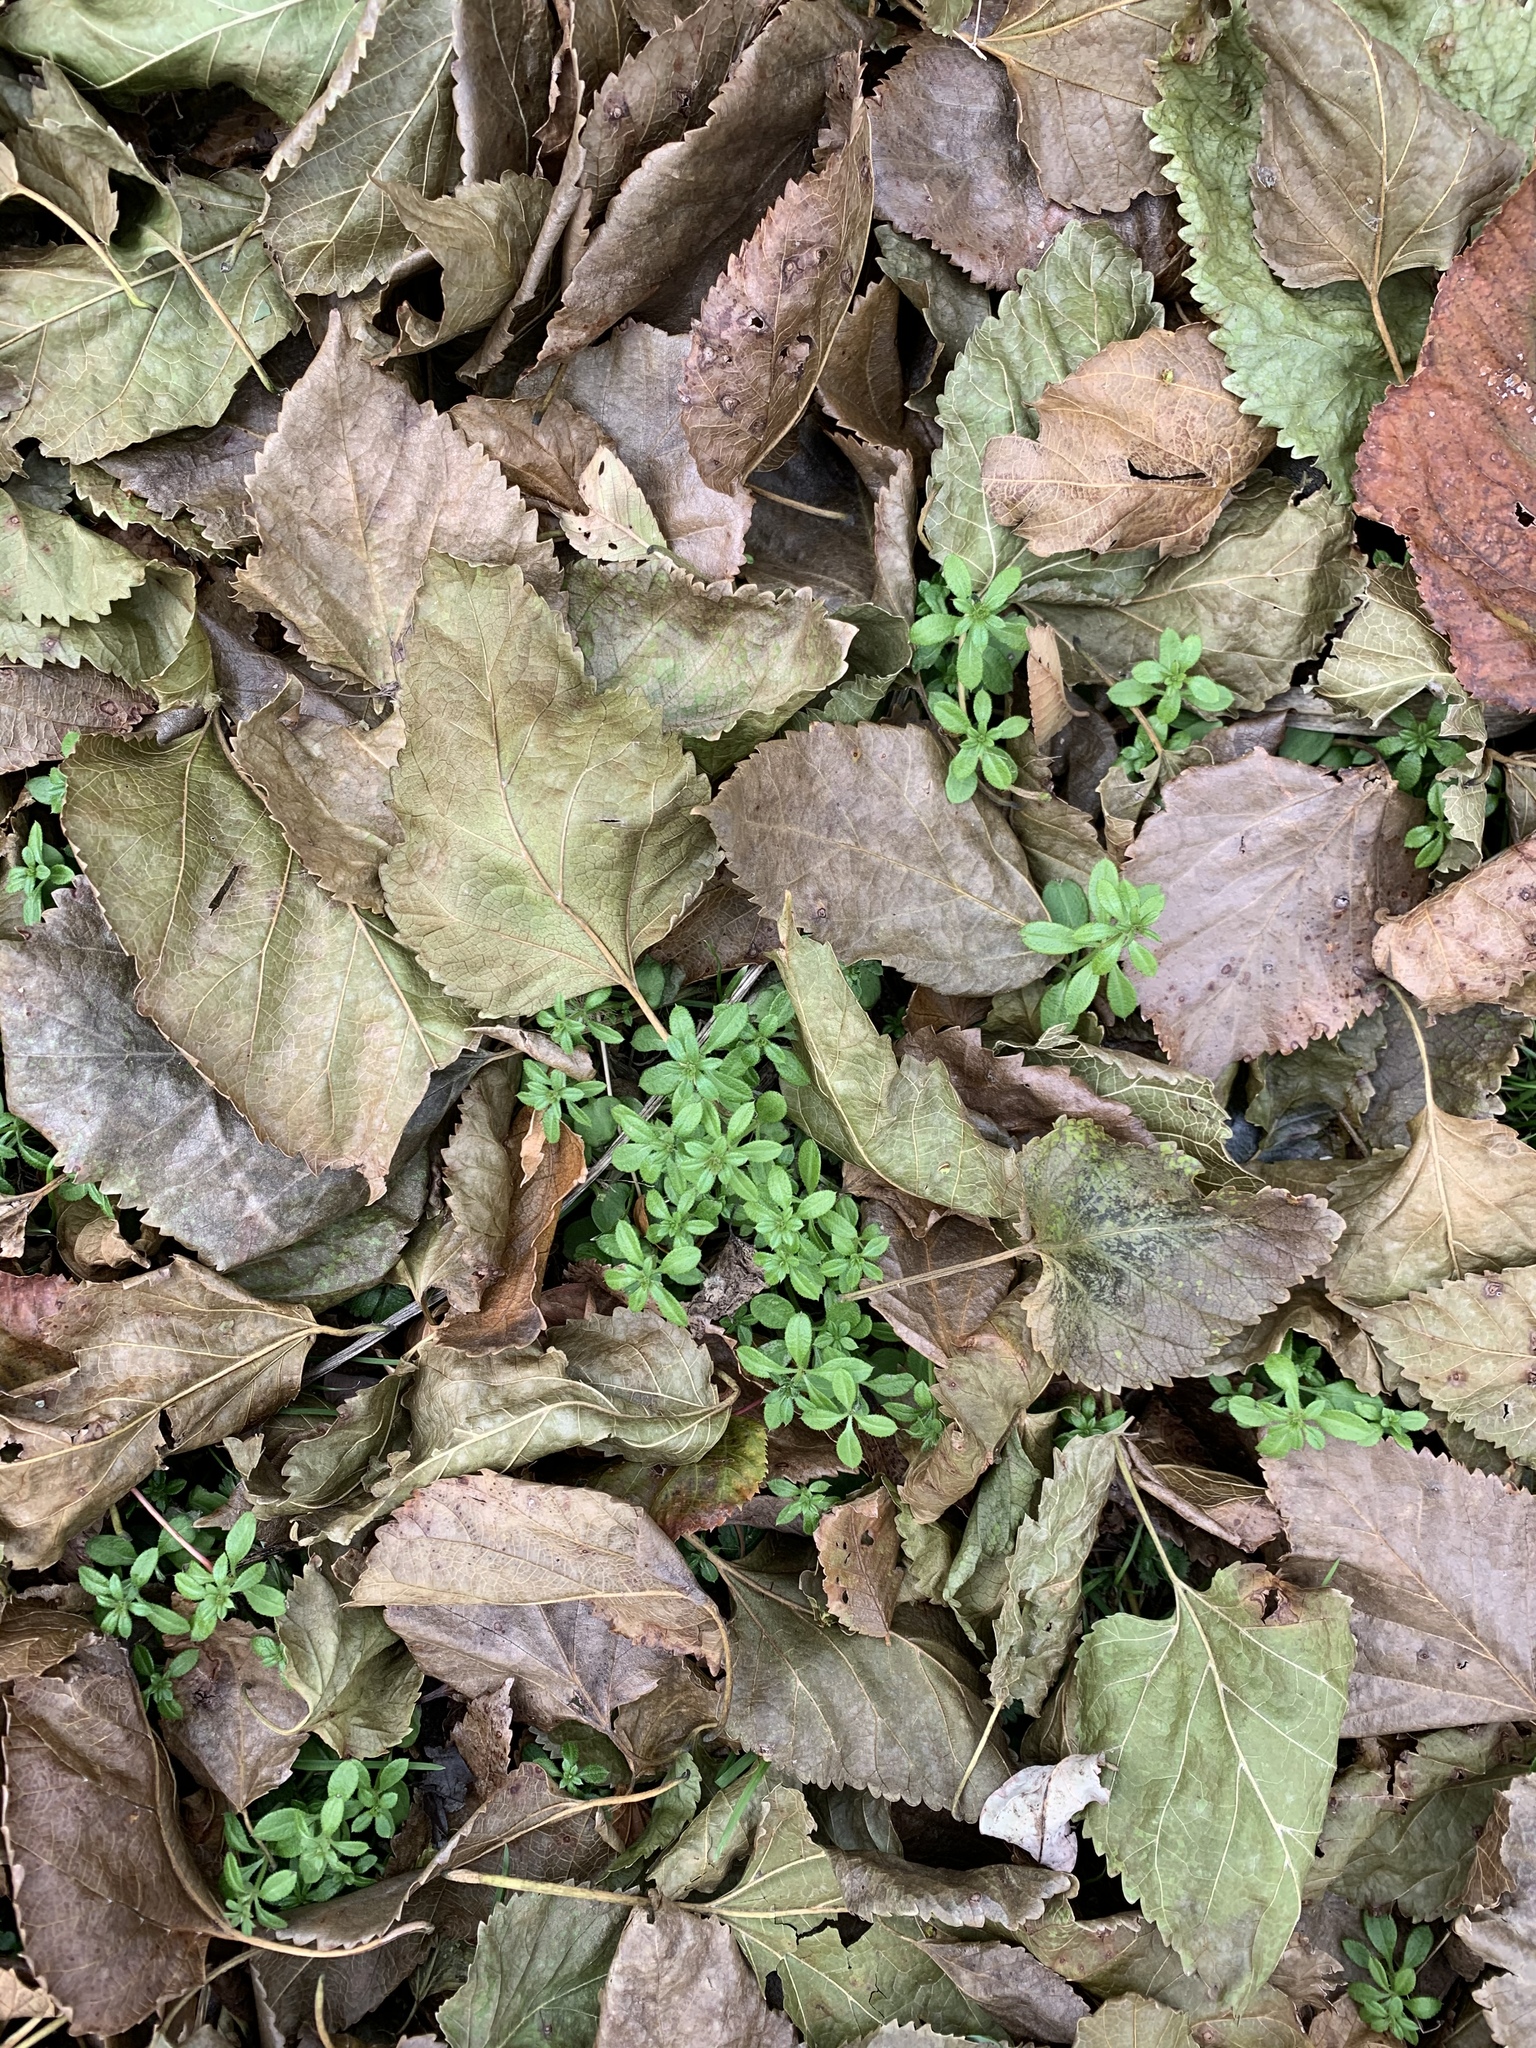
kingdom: Plantae
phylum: Tracheophyta
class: Magnoliopsida
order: Gentianales
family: Rubiaceae
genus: Galium
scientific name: Galium aparine
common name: Cleavers
